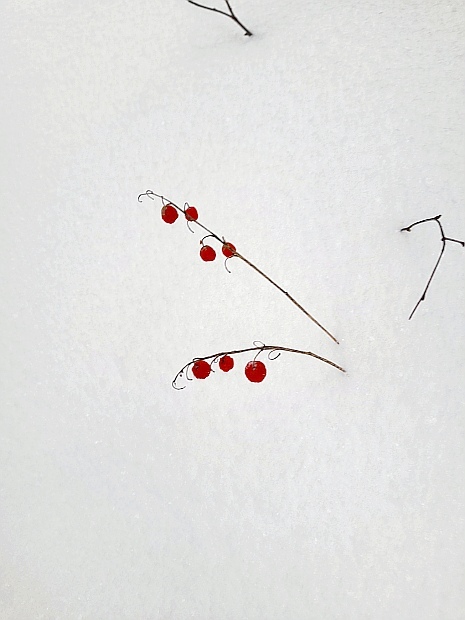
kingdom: Plantae
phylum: Tracheophyta
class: Liliopsida
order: Asparagales
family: Asparagaceae
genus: Convallaria
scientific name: Convallaria majalis
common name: Lily-of-the-valley
